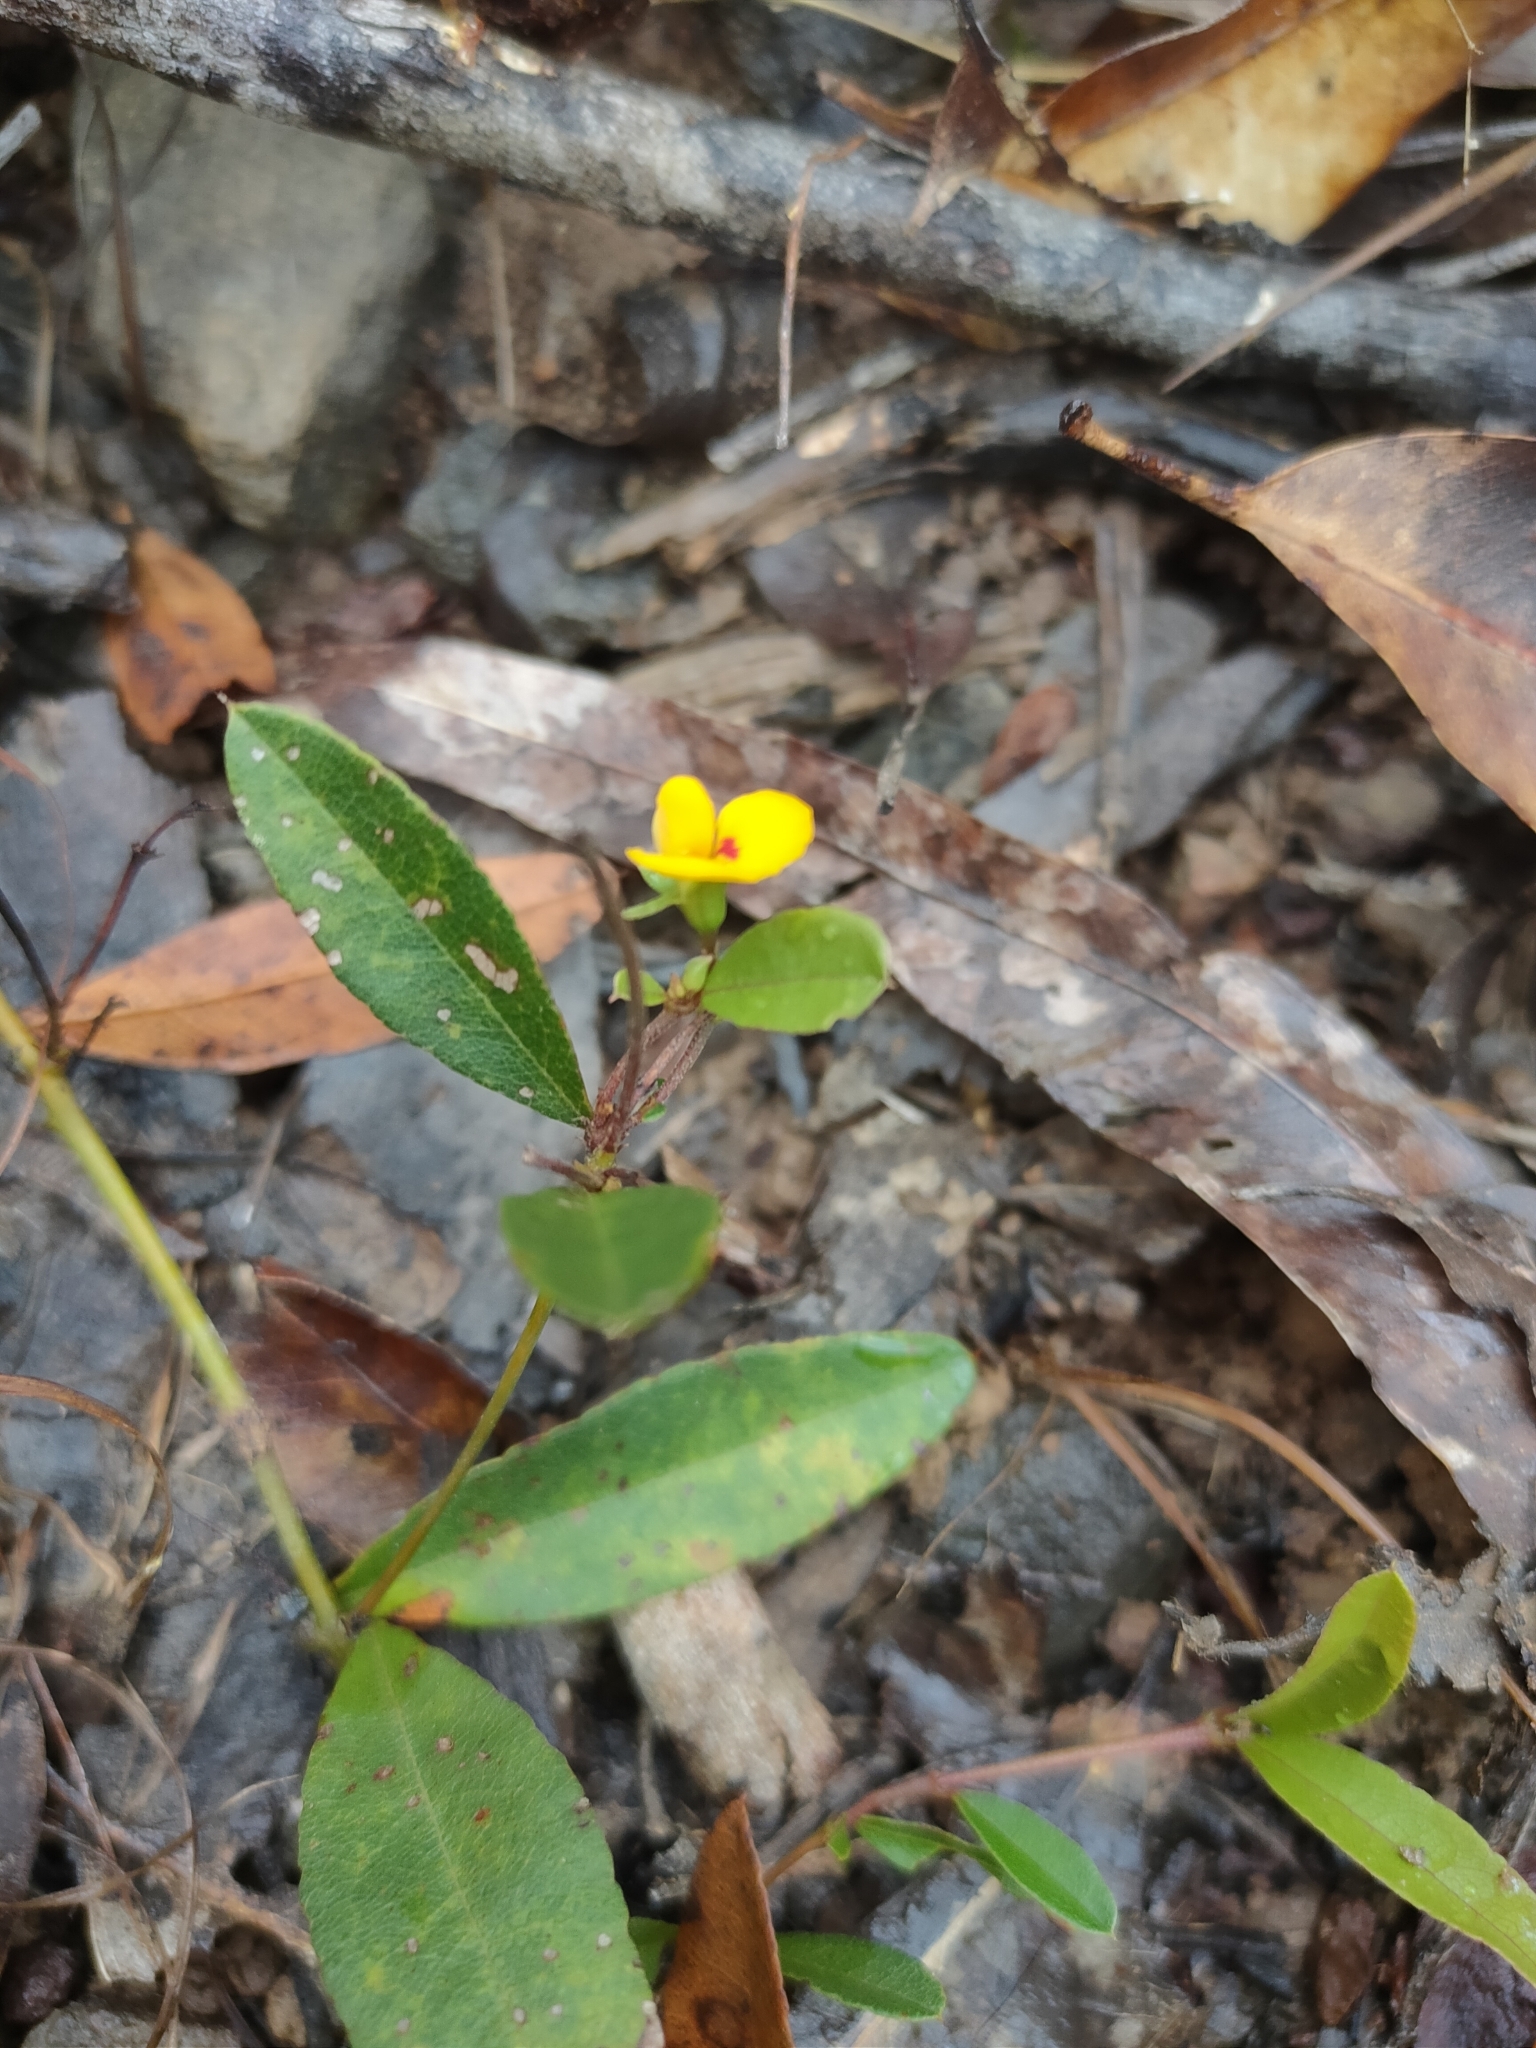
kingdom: Plantae
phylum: Tracheophyta
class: Magnoliopsida
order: Fabales
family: Fabaceae
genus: Podolobium
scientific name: Podolobium scandens
